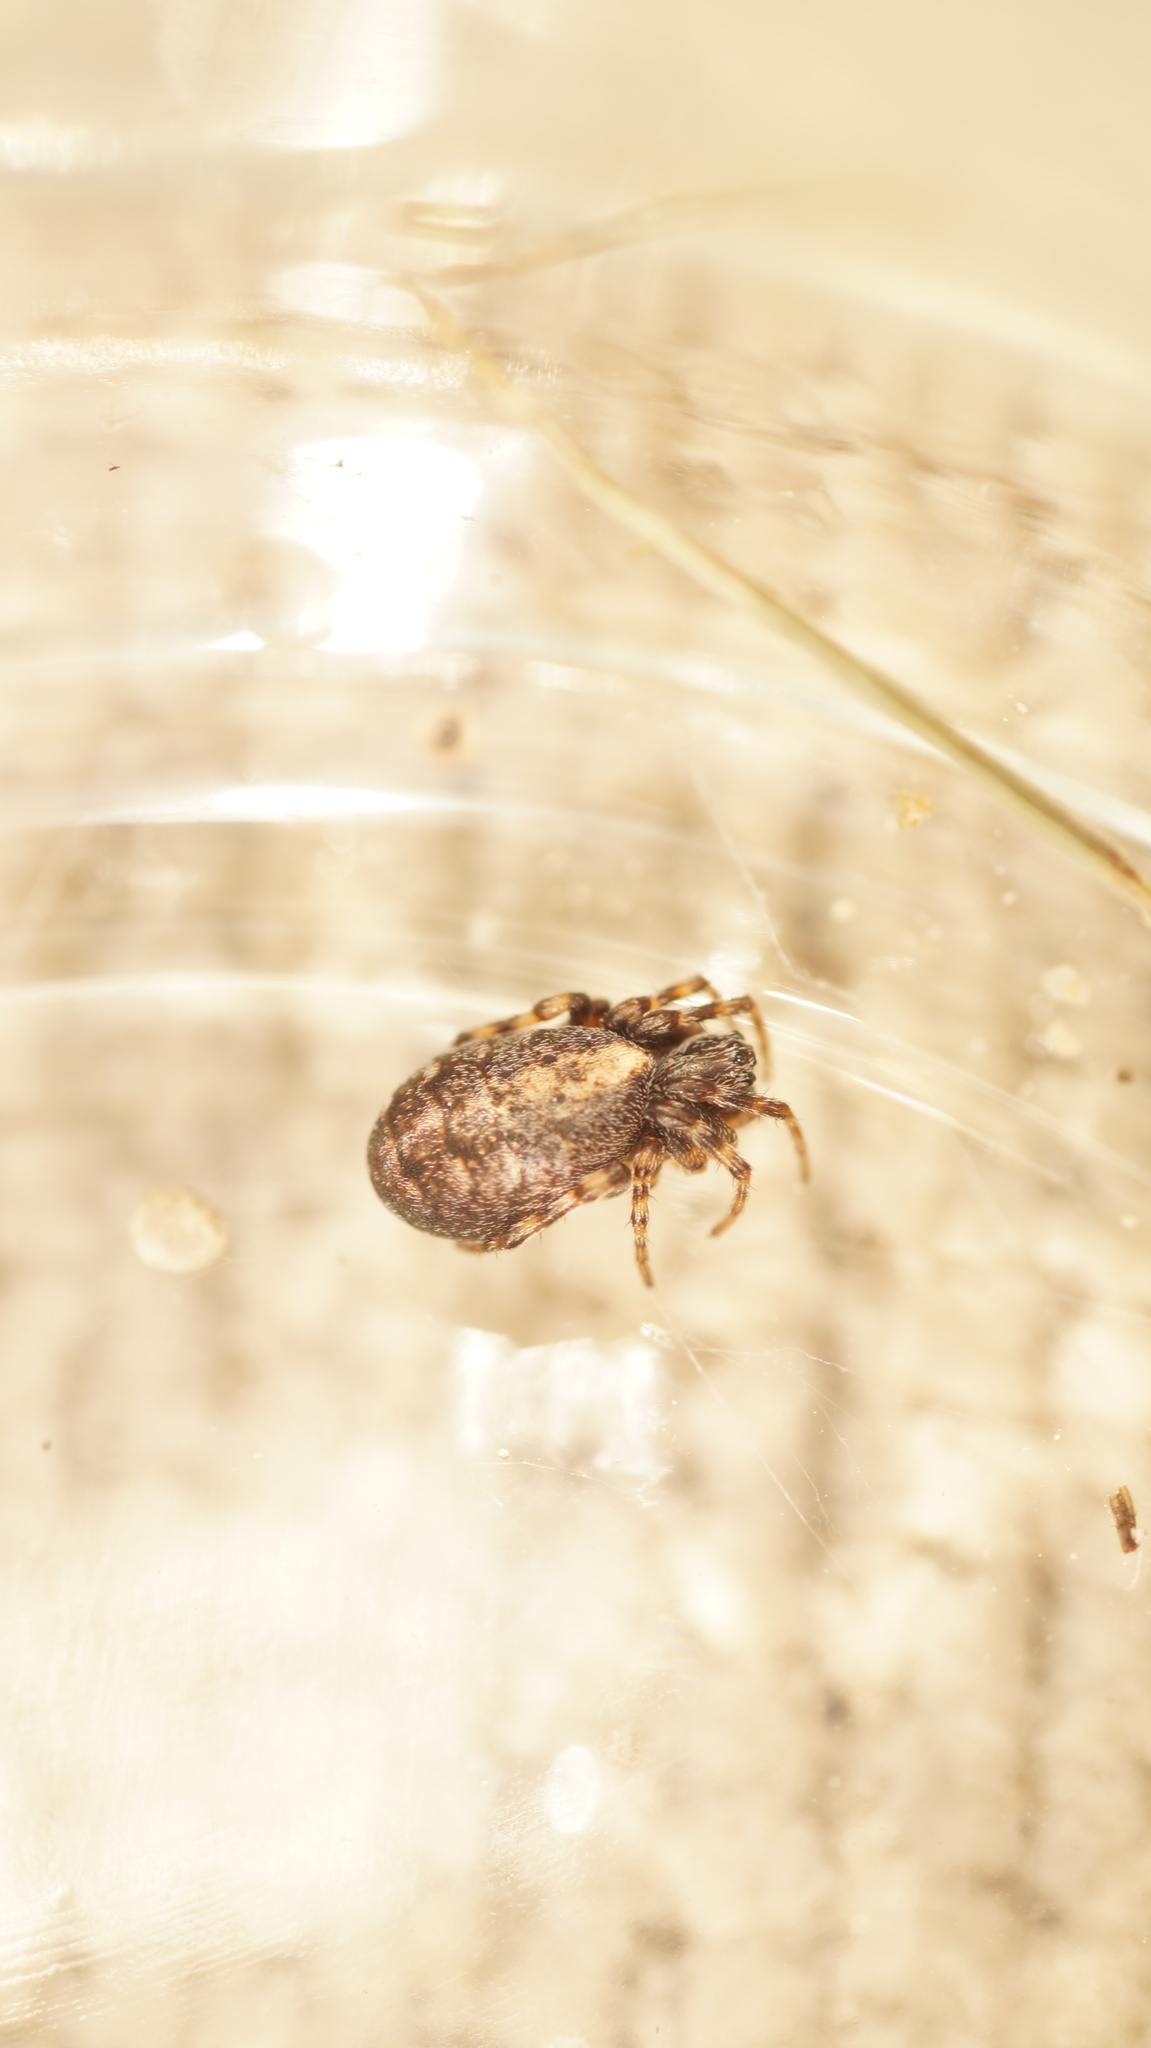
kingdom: Animalia
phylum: Arthropoda
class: Arachnida
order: Araneae
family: Araneidae
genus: Cercidia
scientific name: Cercidia prominens
